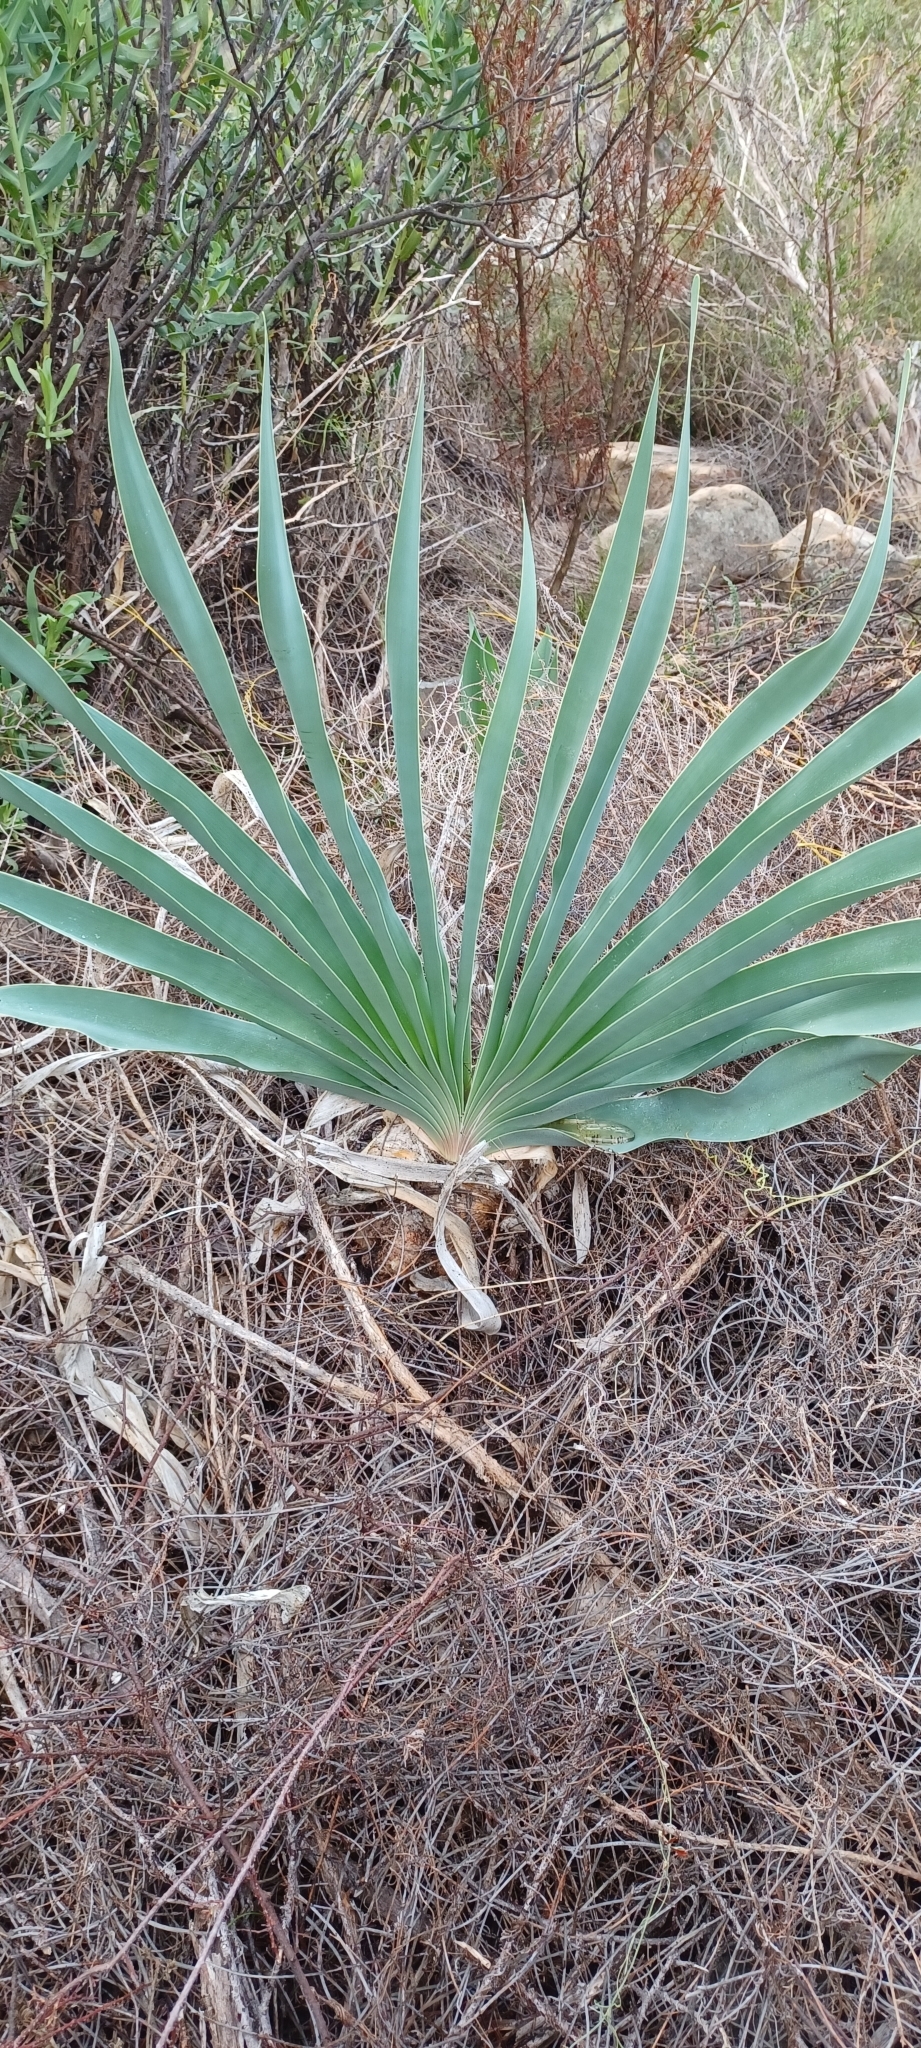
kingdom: Plantae
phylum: Tracheophyta
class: Liliopsida
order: Asparagales
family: Amaryllidaceae
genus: Boophone
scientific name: Boophone disticha
